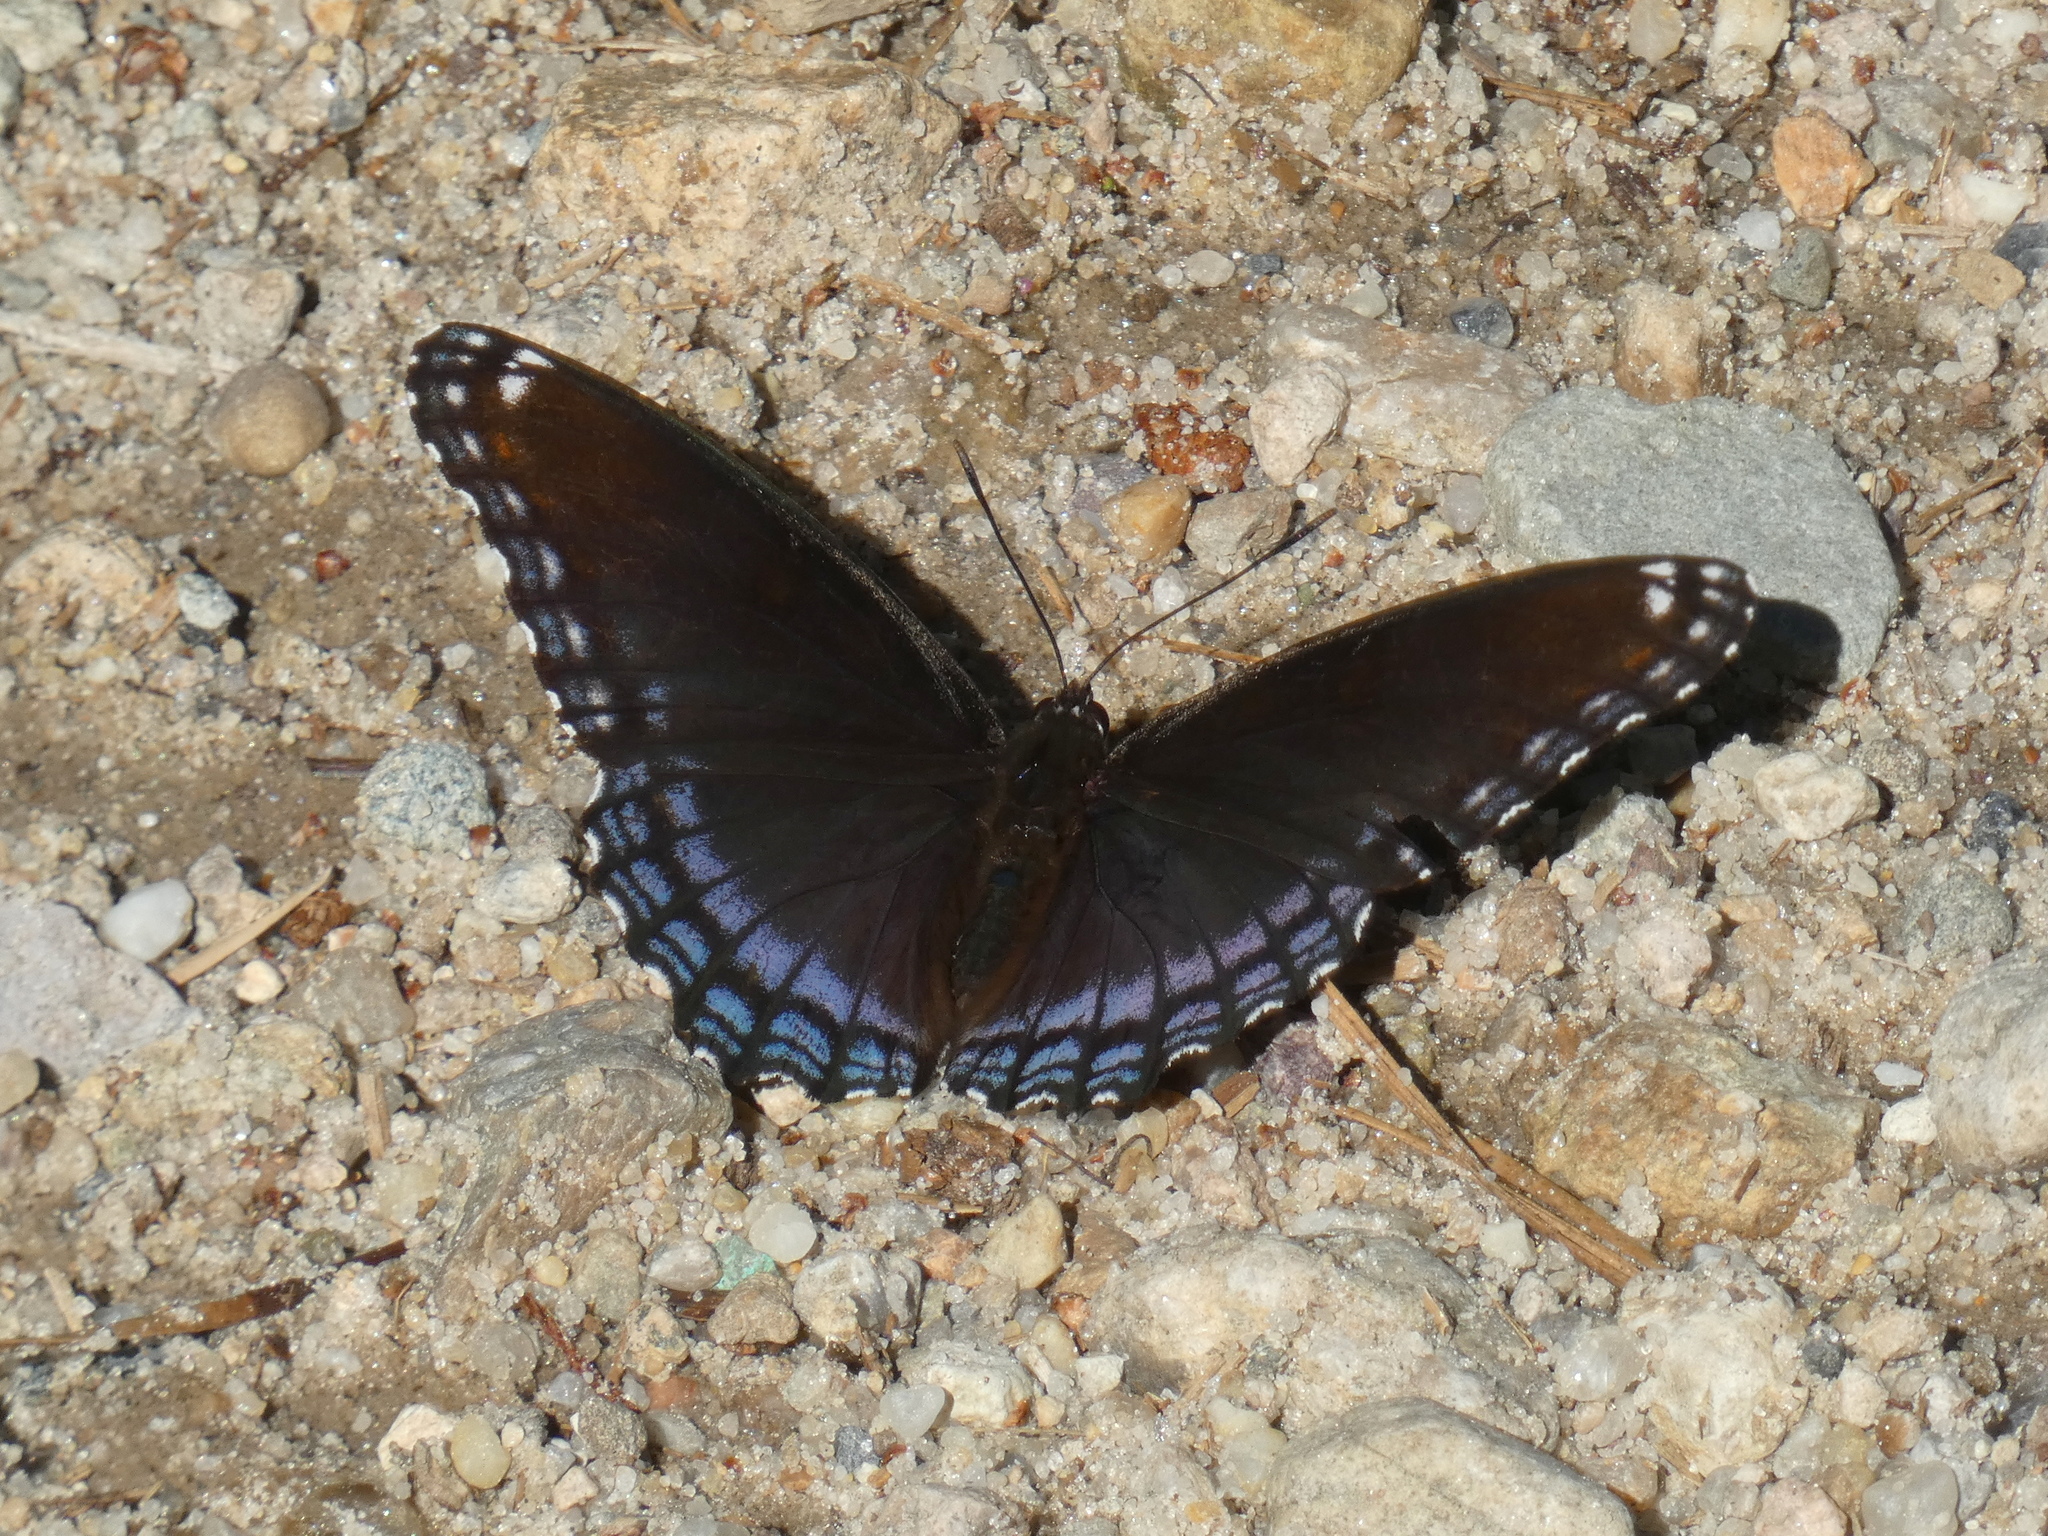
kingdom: Animalia
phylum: Arthropoda
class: Insecta
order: Lepidoptera
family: Nymphalidae
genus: Limenitis
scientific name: Limenitis astyanax
